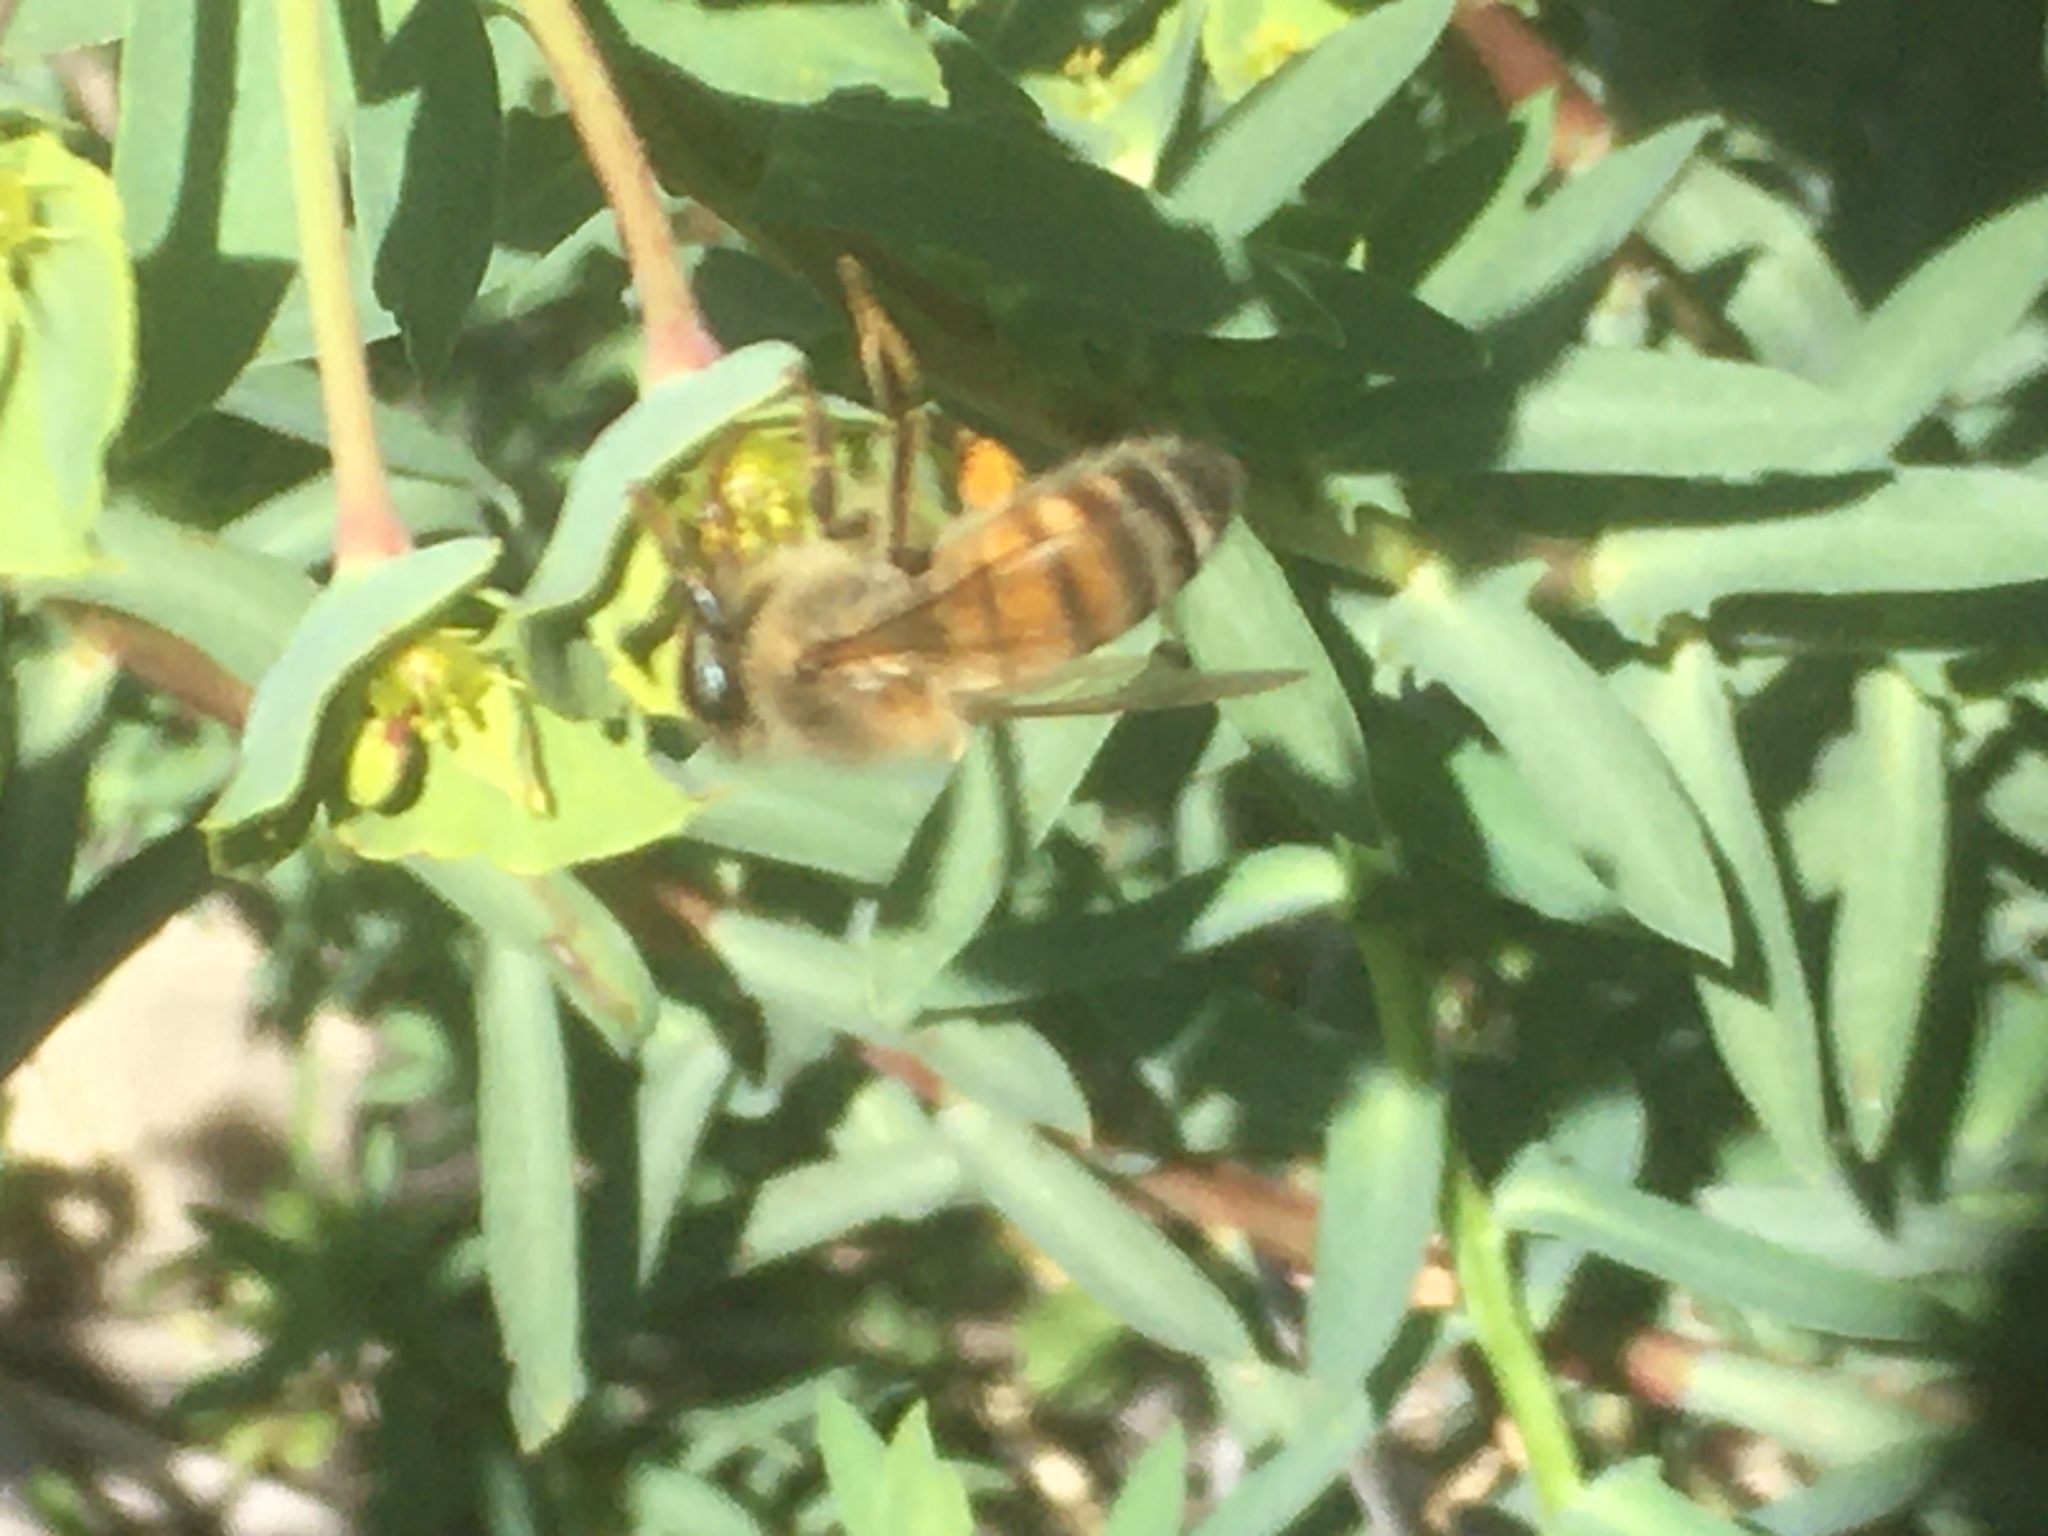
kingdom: Animalia
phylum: Arthropoda
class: Insecta
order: Hymenoptera
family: Apidae
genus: Apis
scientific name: Apis mellifera
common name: Honey bee
